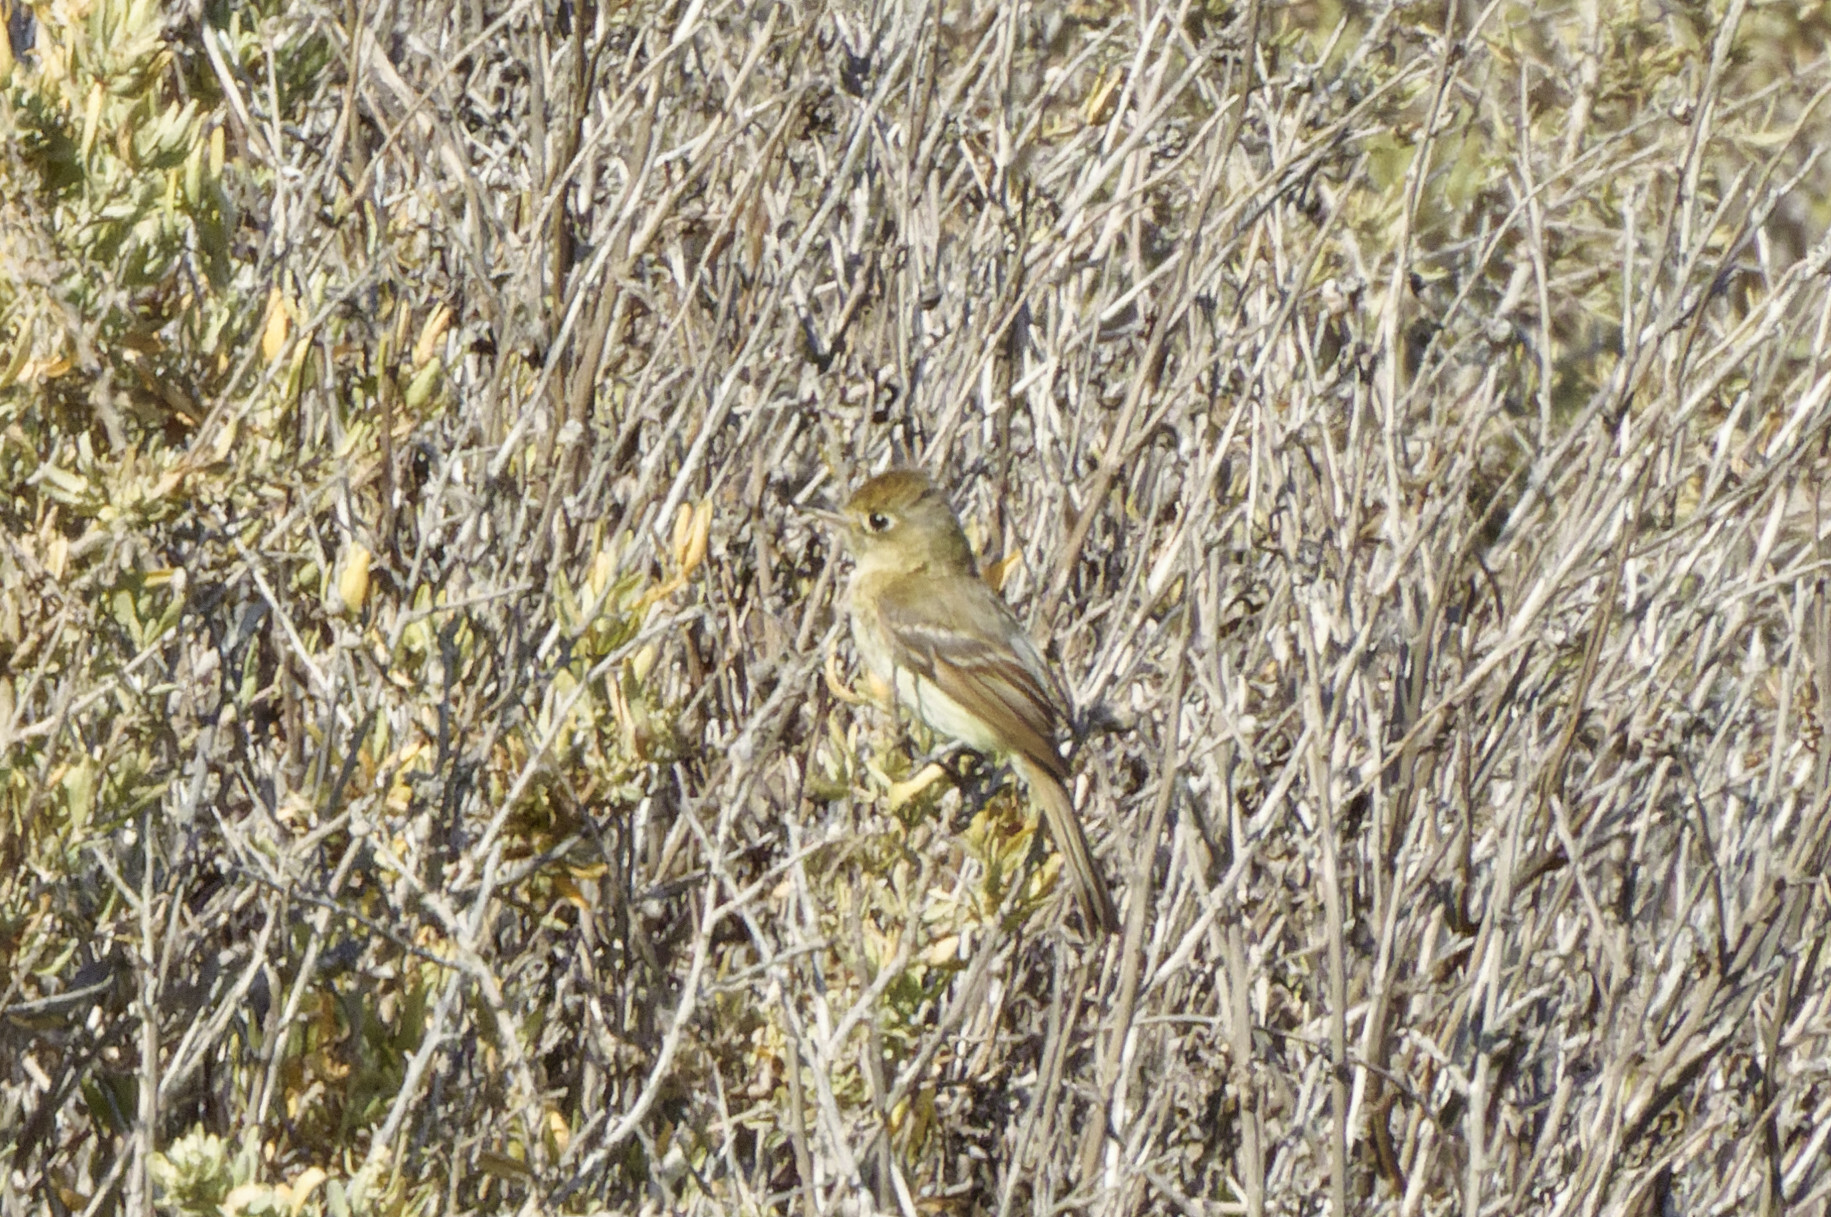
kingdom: Animalia
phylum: Chordata
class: Aves
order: Passeriformes
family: Tyrannidae
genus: Empidonax
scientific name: Empidonax difficilis
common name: Pacific-slope flycatcher
